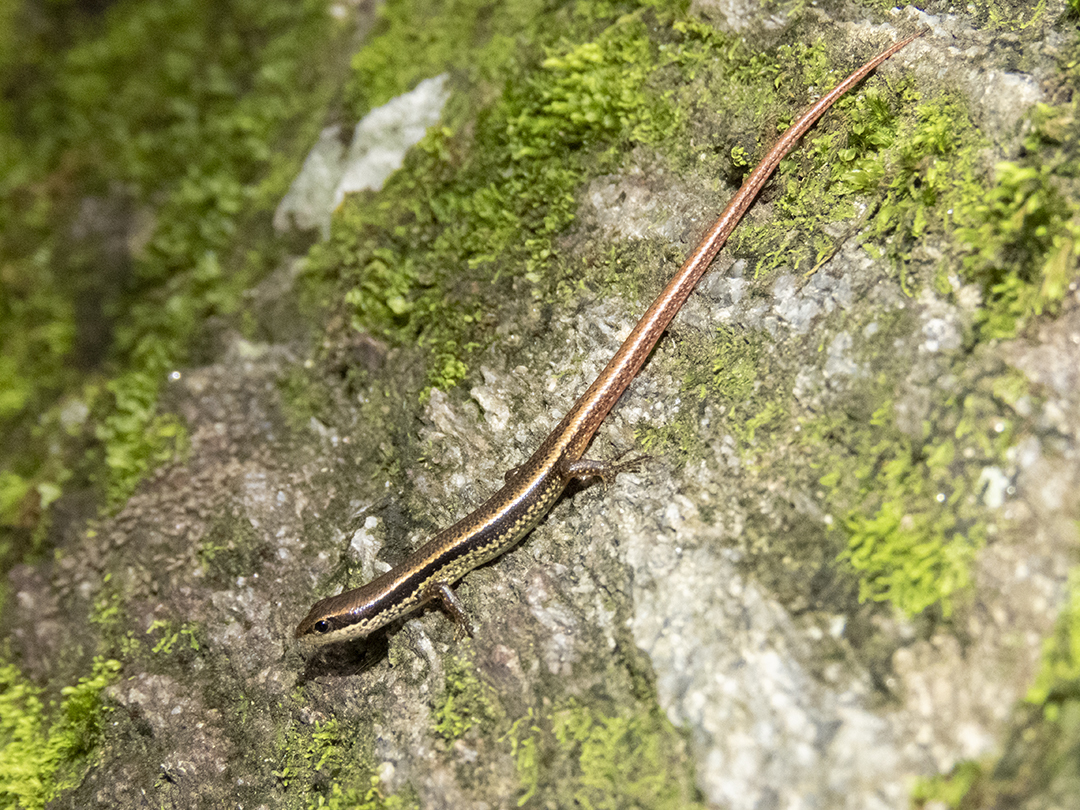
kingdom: Animalia
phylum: Chordata
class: Squamata
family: Scincidae
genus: Sphenomorphus
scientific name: Sphenomorphus indicus
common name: Himalayan forest skink
